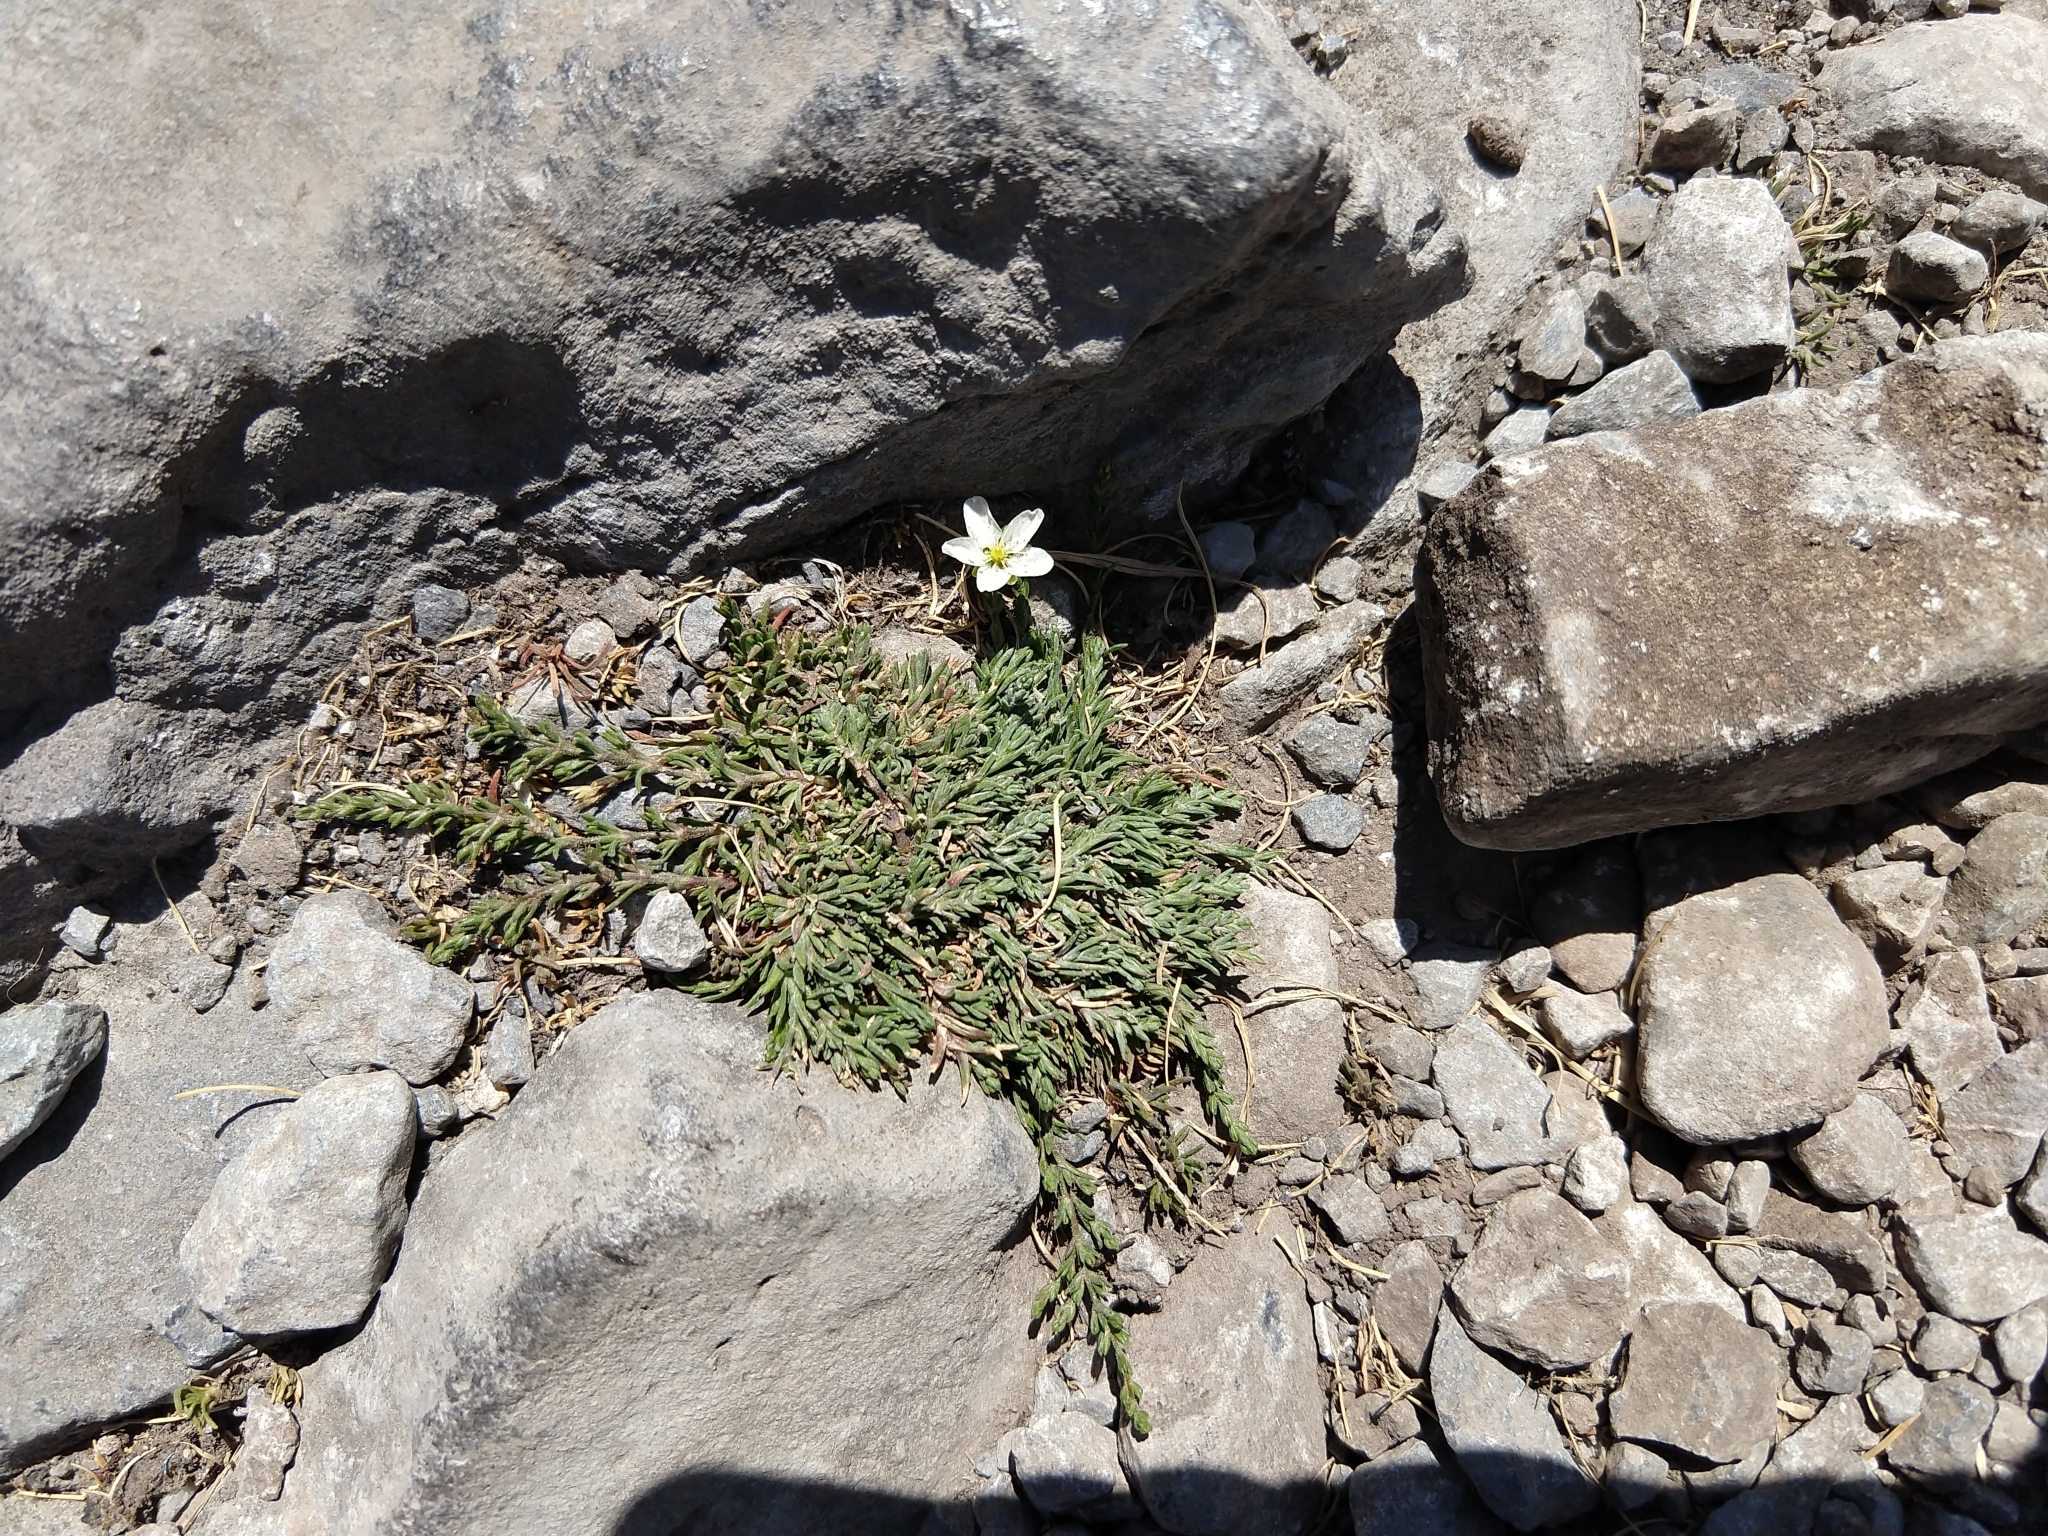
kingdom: Plantae
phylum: Tracheophyta
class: Magnoliopsida
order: Caryophyllales
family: Caryophyllaceae
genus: Sabulina
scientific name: Sabulina verna
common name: Spring sandwort
